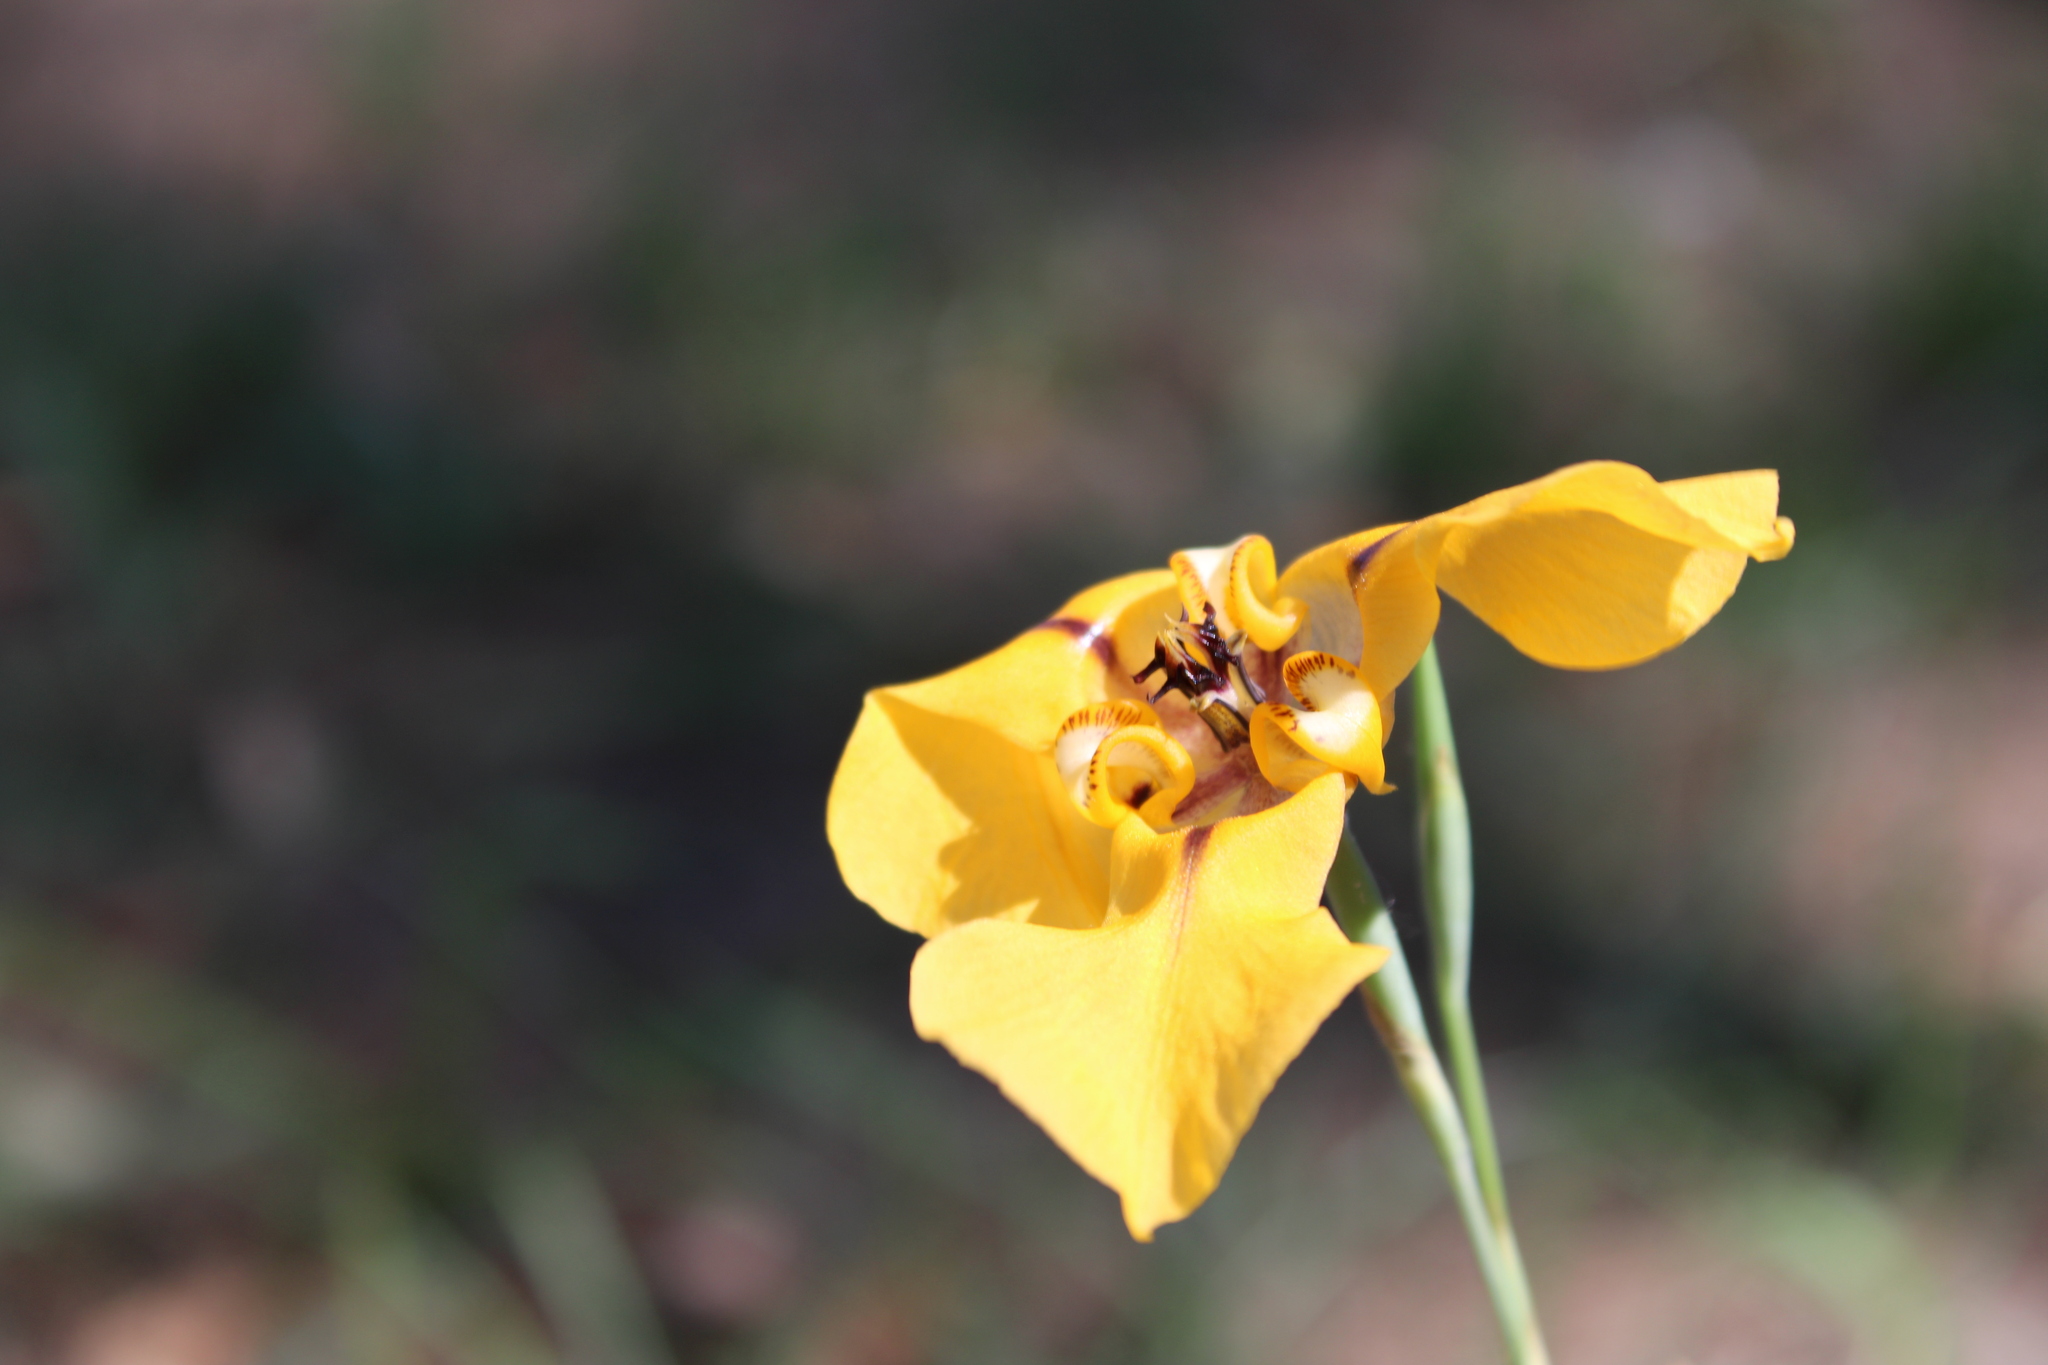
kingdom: Plantae
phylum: Tracheophyta
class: Liliopsida
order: Asparagales
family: Iridaceae
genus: Cypella
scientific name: Cypella herbertii
